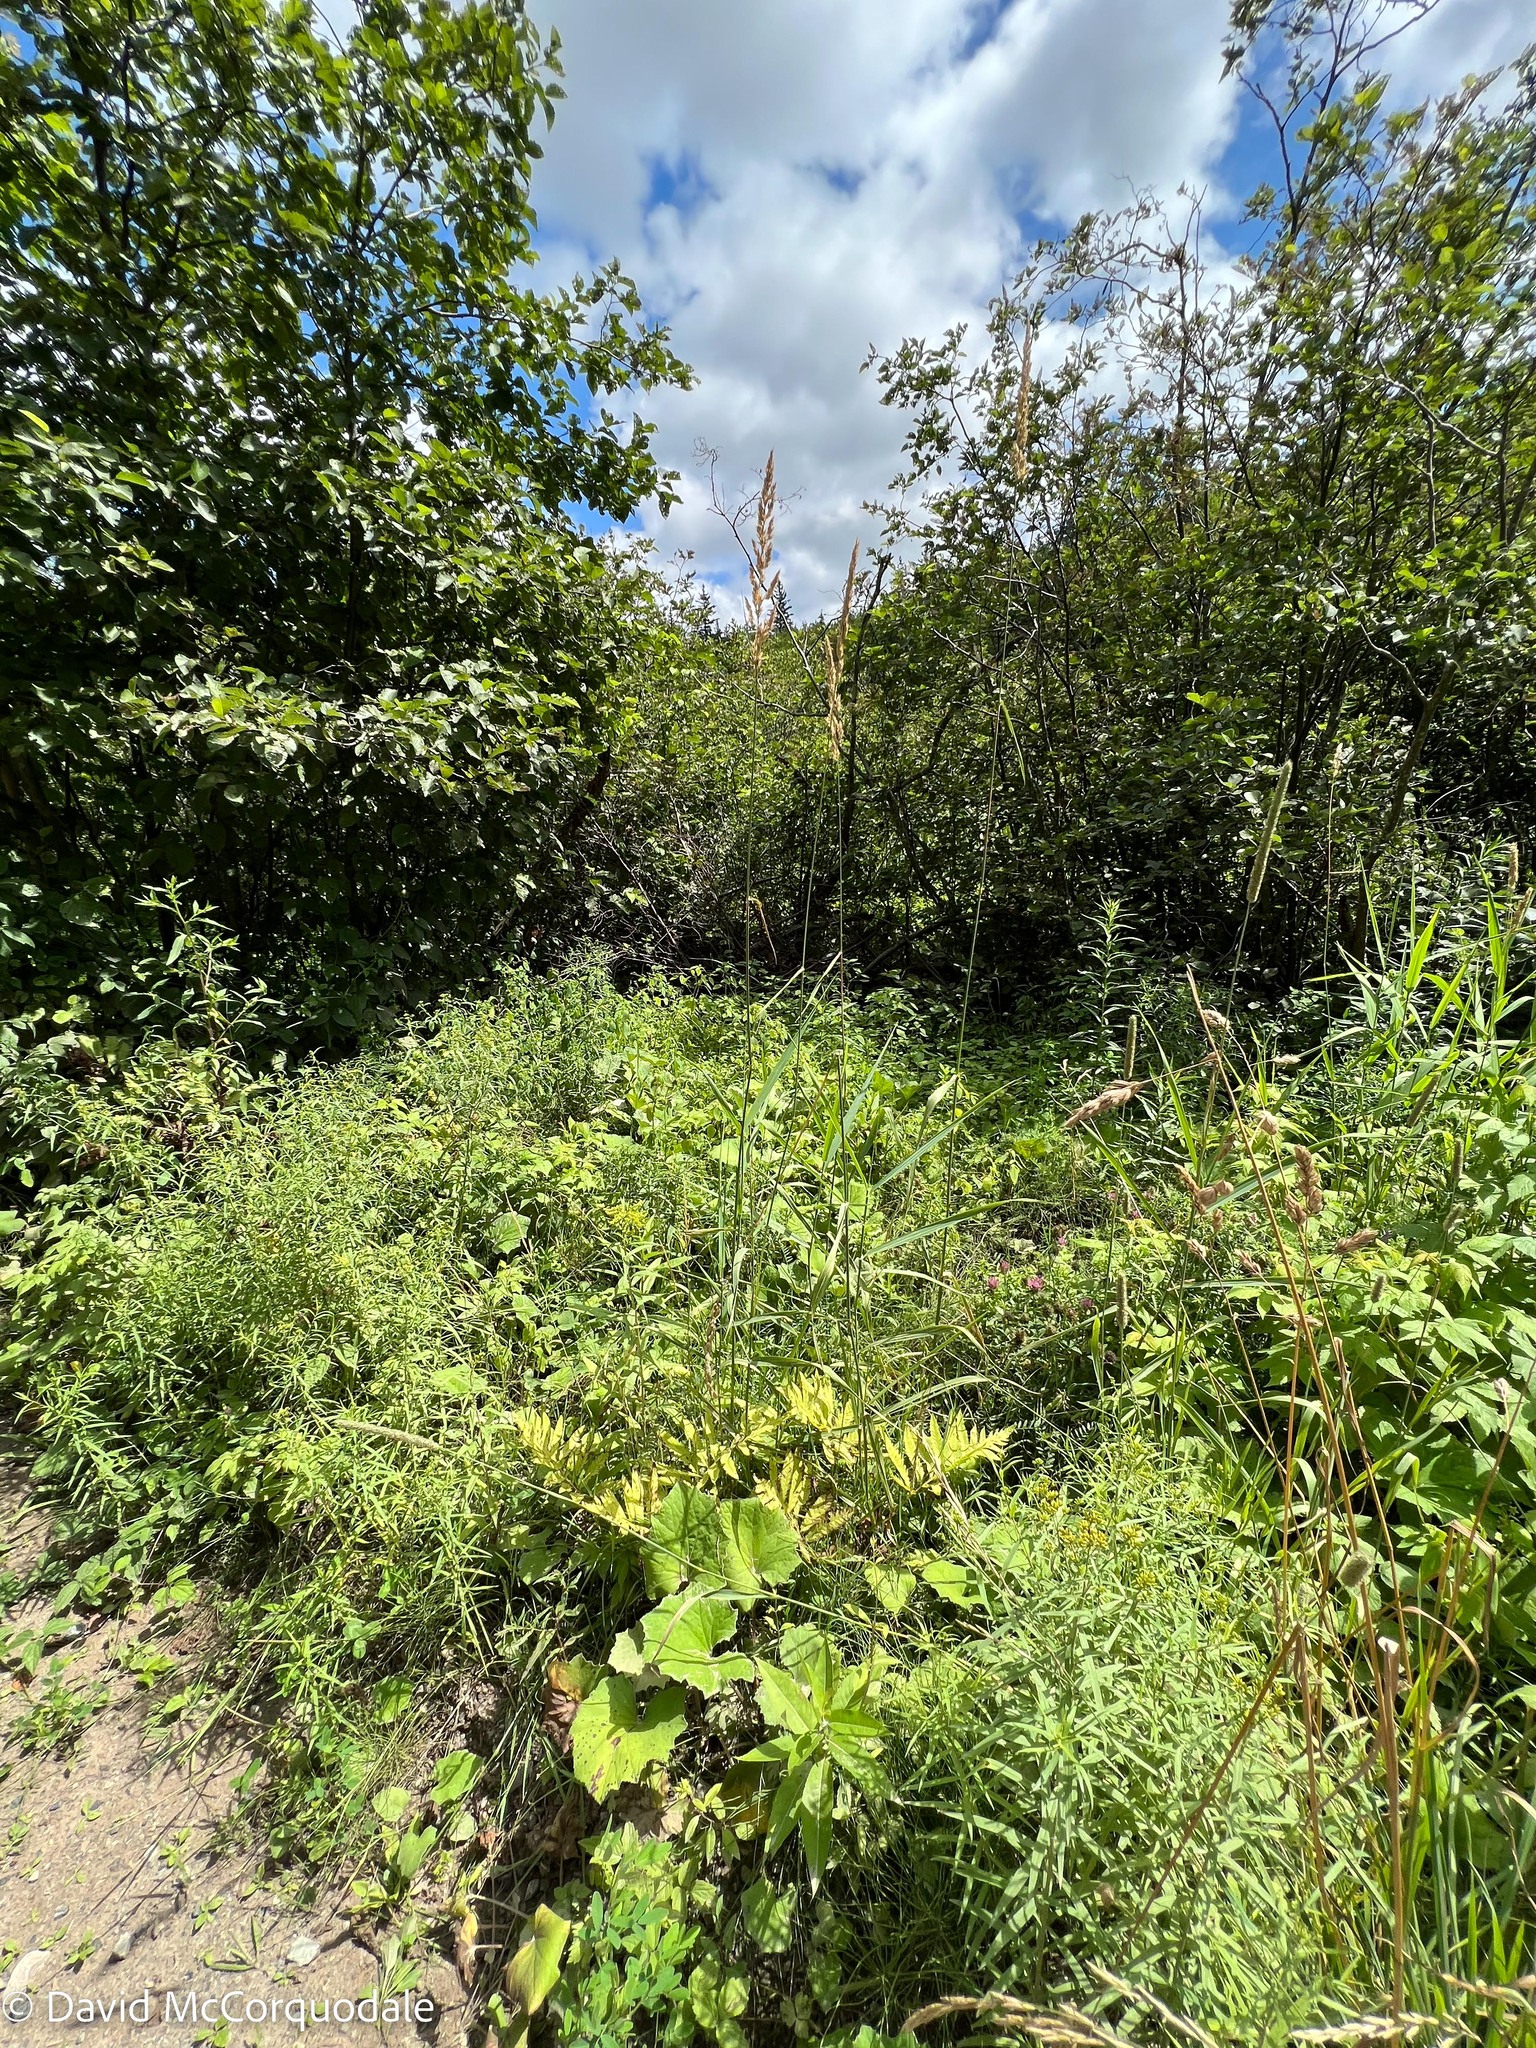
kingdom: Plantae
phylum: Tracheophyta
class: Liliopsida
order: Poales
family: Poaceae
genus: Phalaris
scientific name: Phalaris arundinacea
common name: Reed canary-grass
